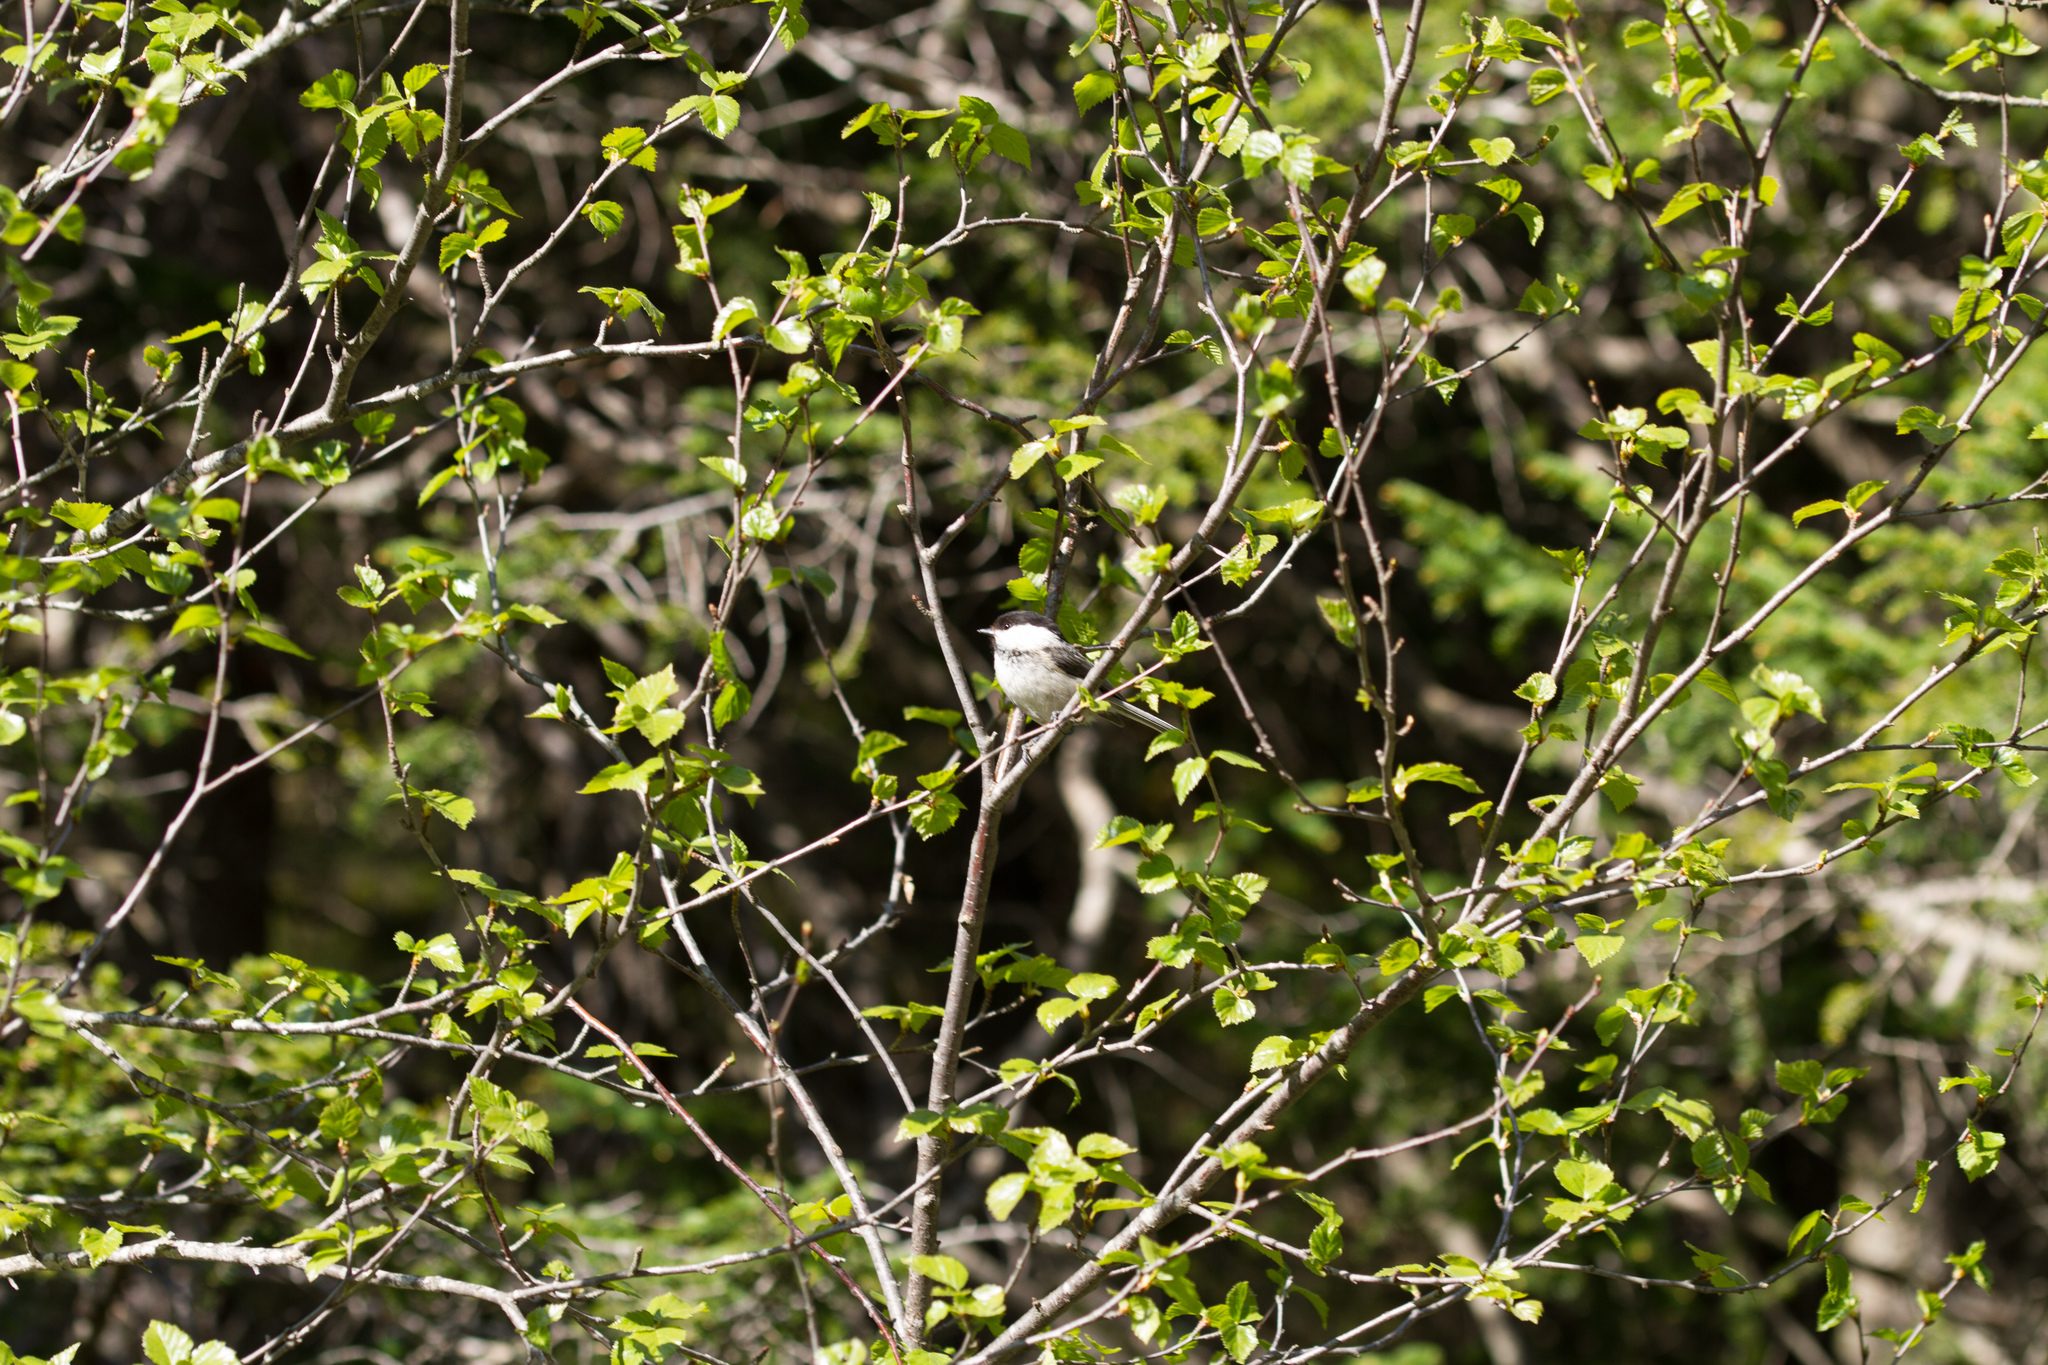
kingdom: Animalia
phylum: Chordata
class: Aves
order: Passeriformes
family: Paridae
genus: Poecile
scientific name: Poecile montanus
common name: Willow tit
